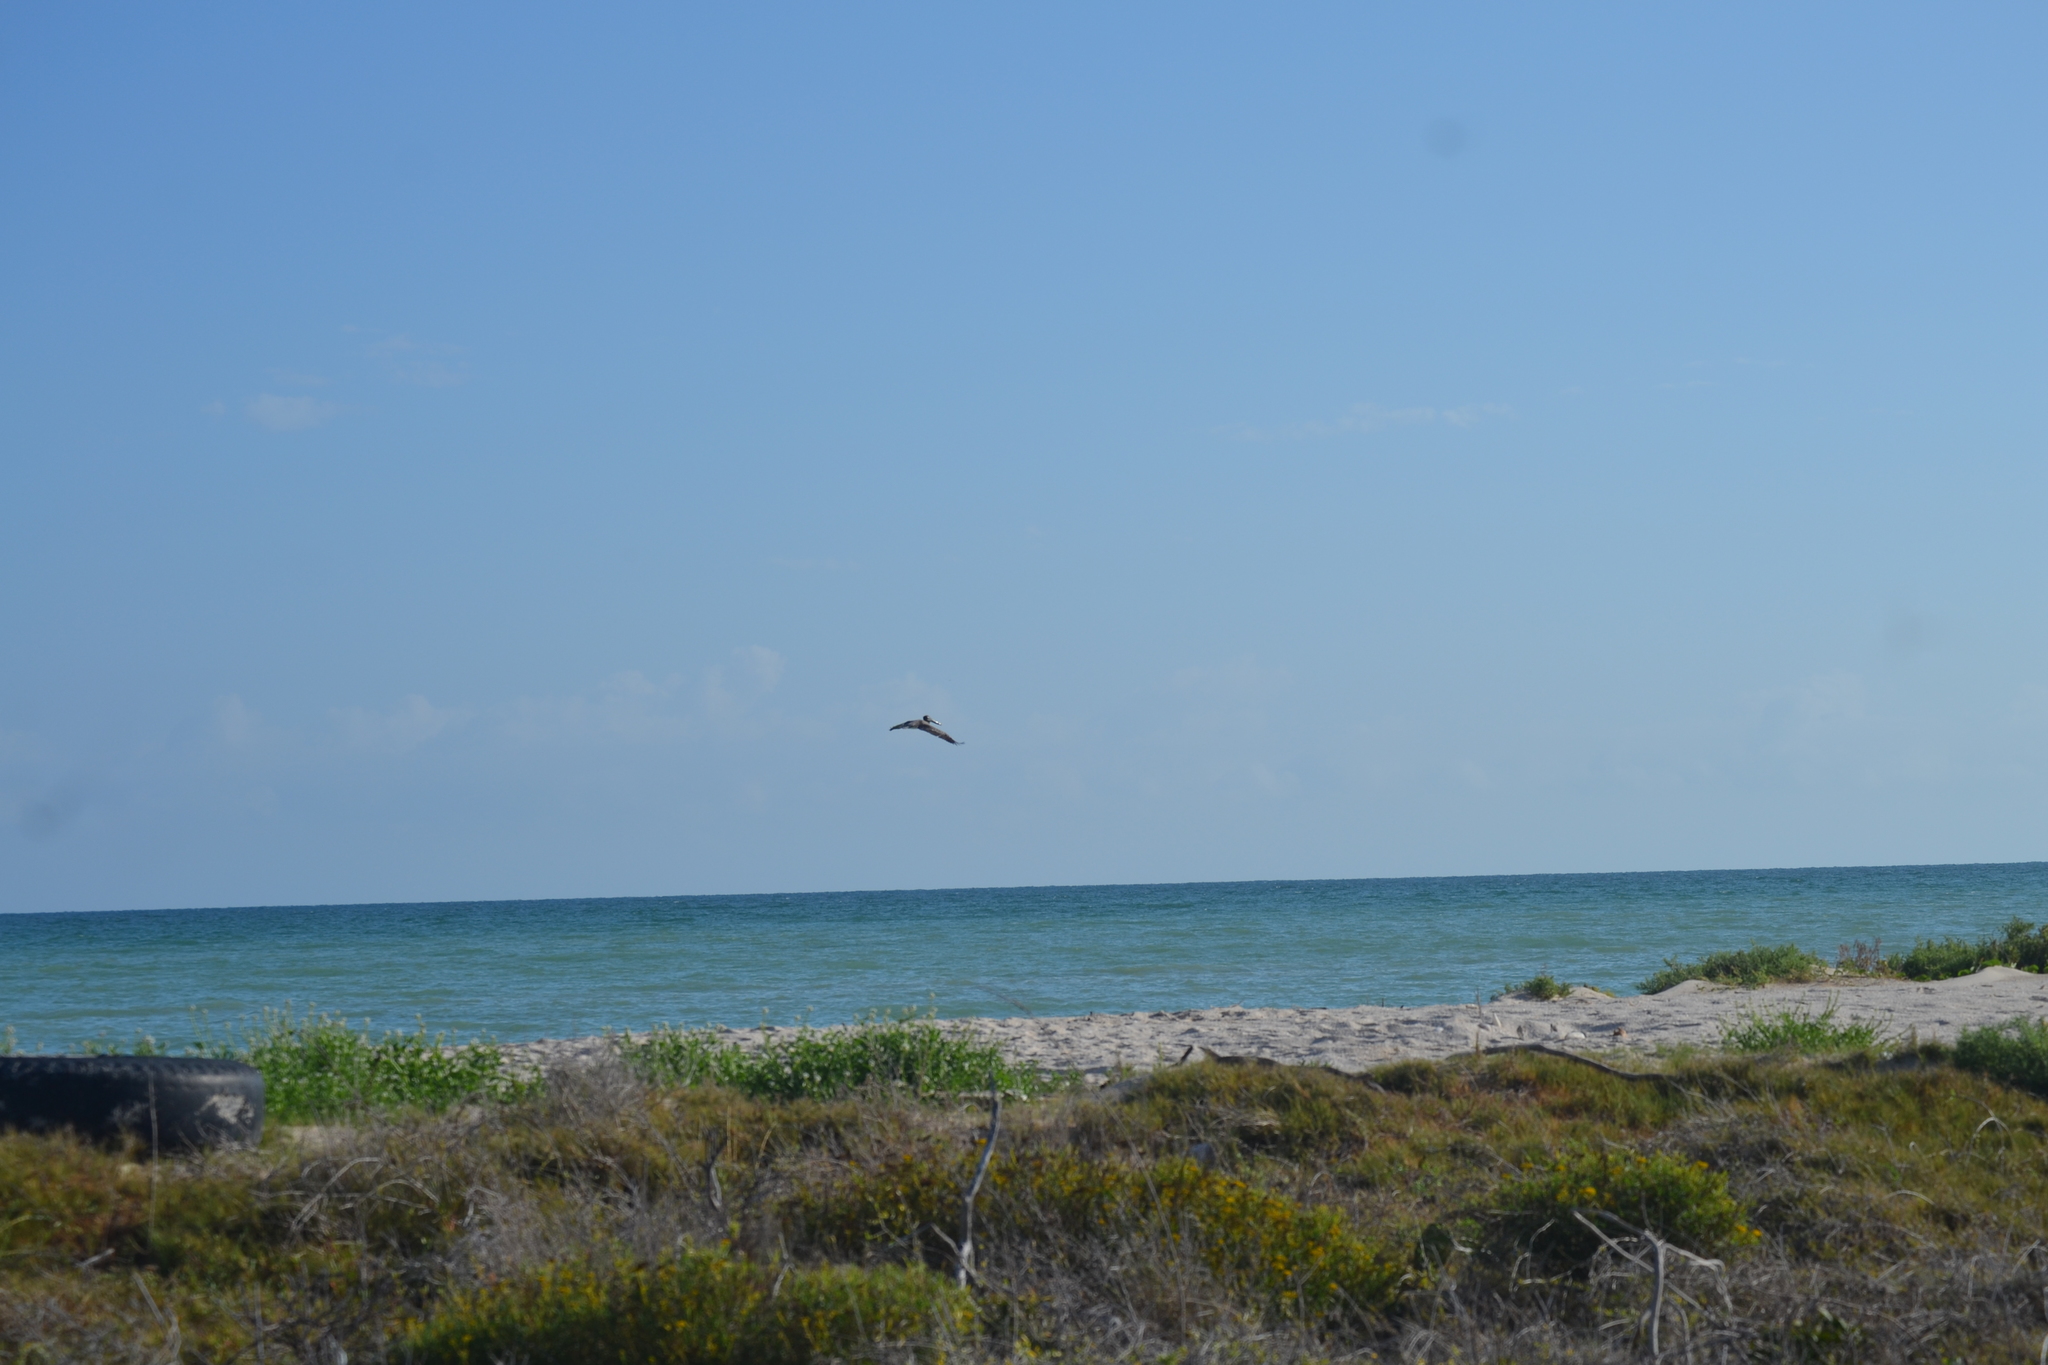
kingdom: Animalia
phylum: Chordata
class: Aves
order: Pelecaniformes
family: Pelecanidae
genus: Pelecanus
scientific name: Pelecanus occidentalis
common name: Brown pelican
